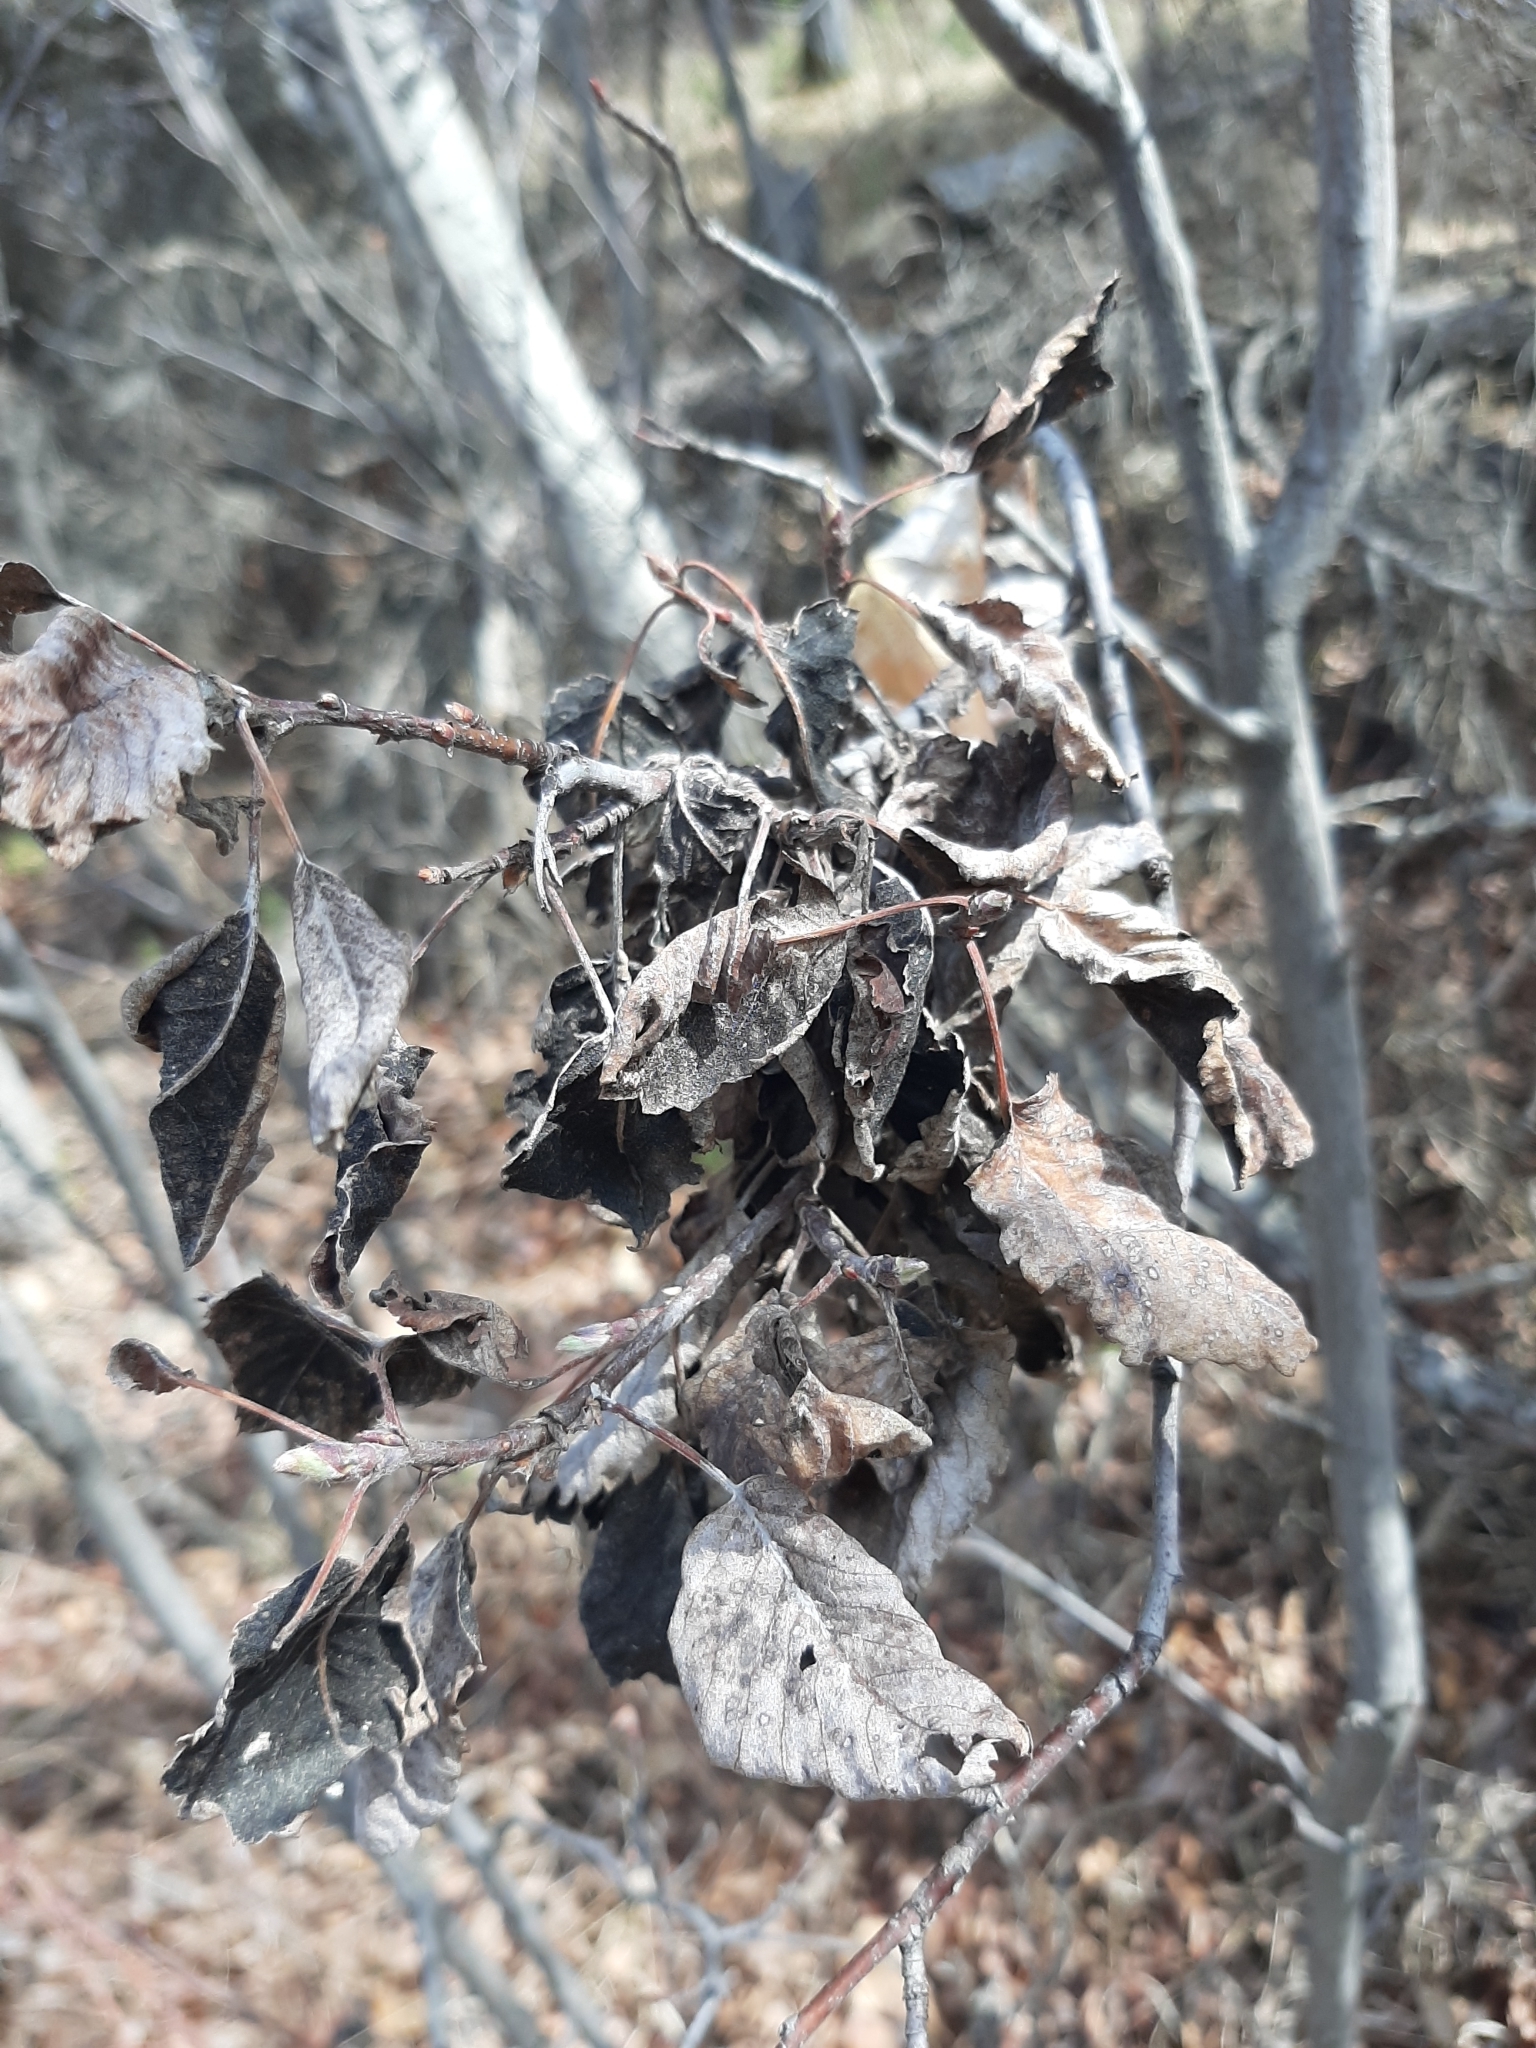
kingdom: Fungi
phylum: Ascomycota
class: Dothideomycetes
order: Venturiales
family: Venturiaceae
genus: Apiosporina
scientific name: Apiosporina collinsii
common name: Black leaf
